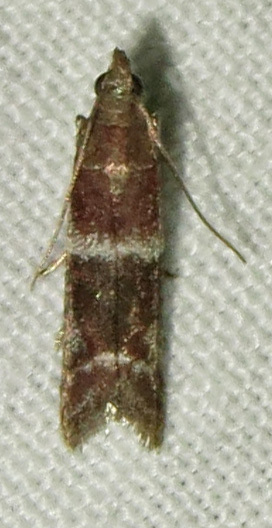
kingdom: Animalia
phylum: Arthropoda
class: Insecta
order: Lepidoptera
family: Pyralidae
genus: Moodna
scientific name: Moodna ostrinella
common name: Darker moodna moth
